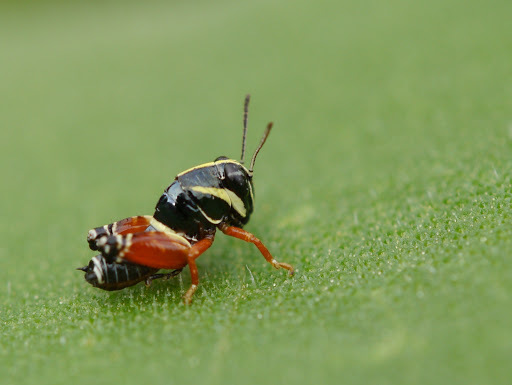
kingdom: Animalia
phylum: Arthropoda
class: Insecta
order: Orthoptera
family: Acrididae
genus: Aidemona
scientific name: Aidemona azteca
